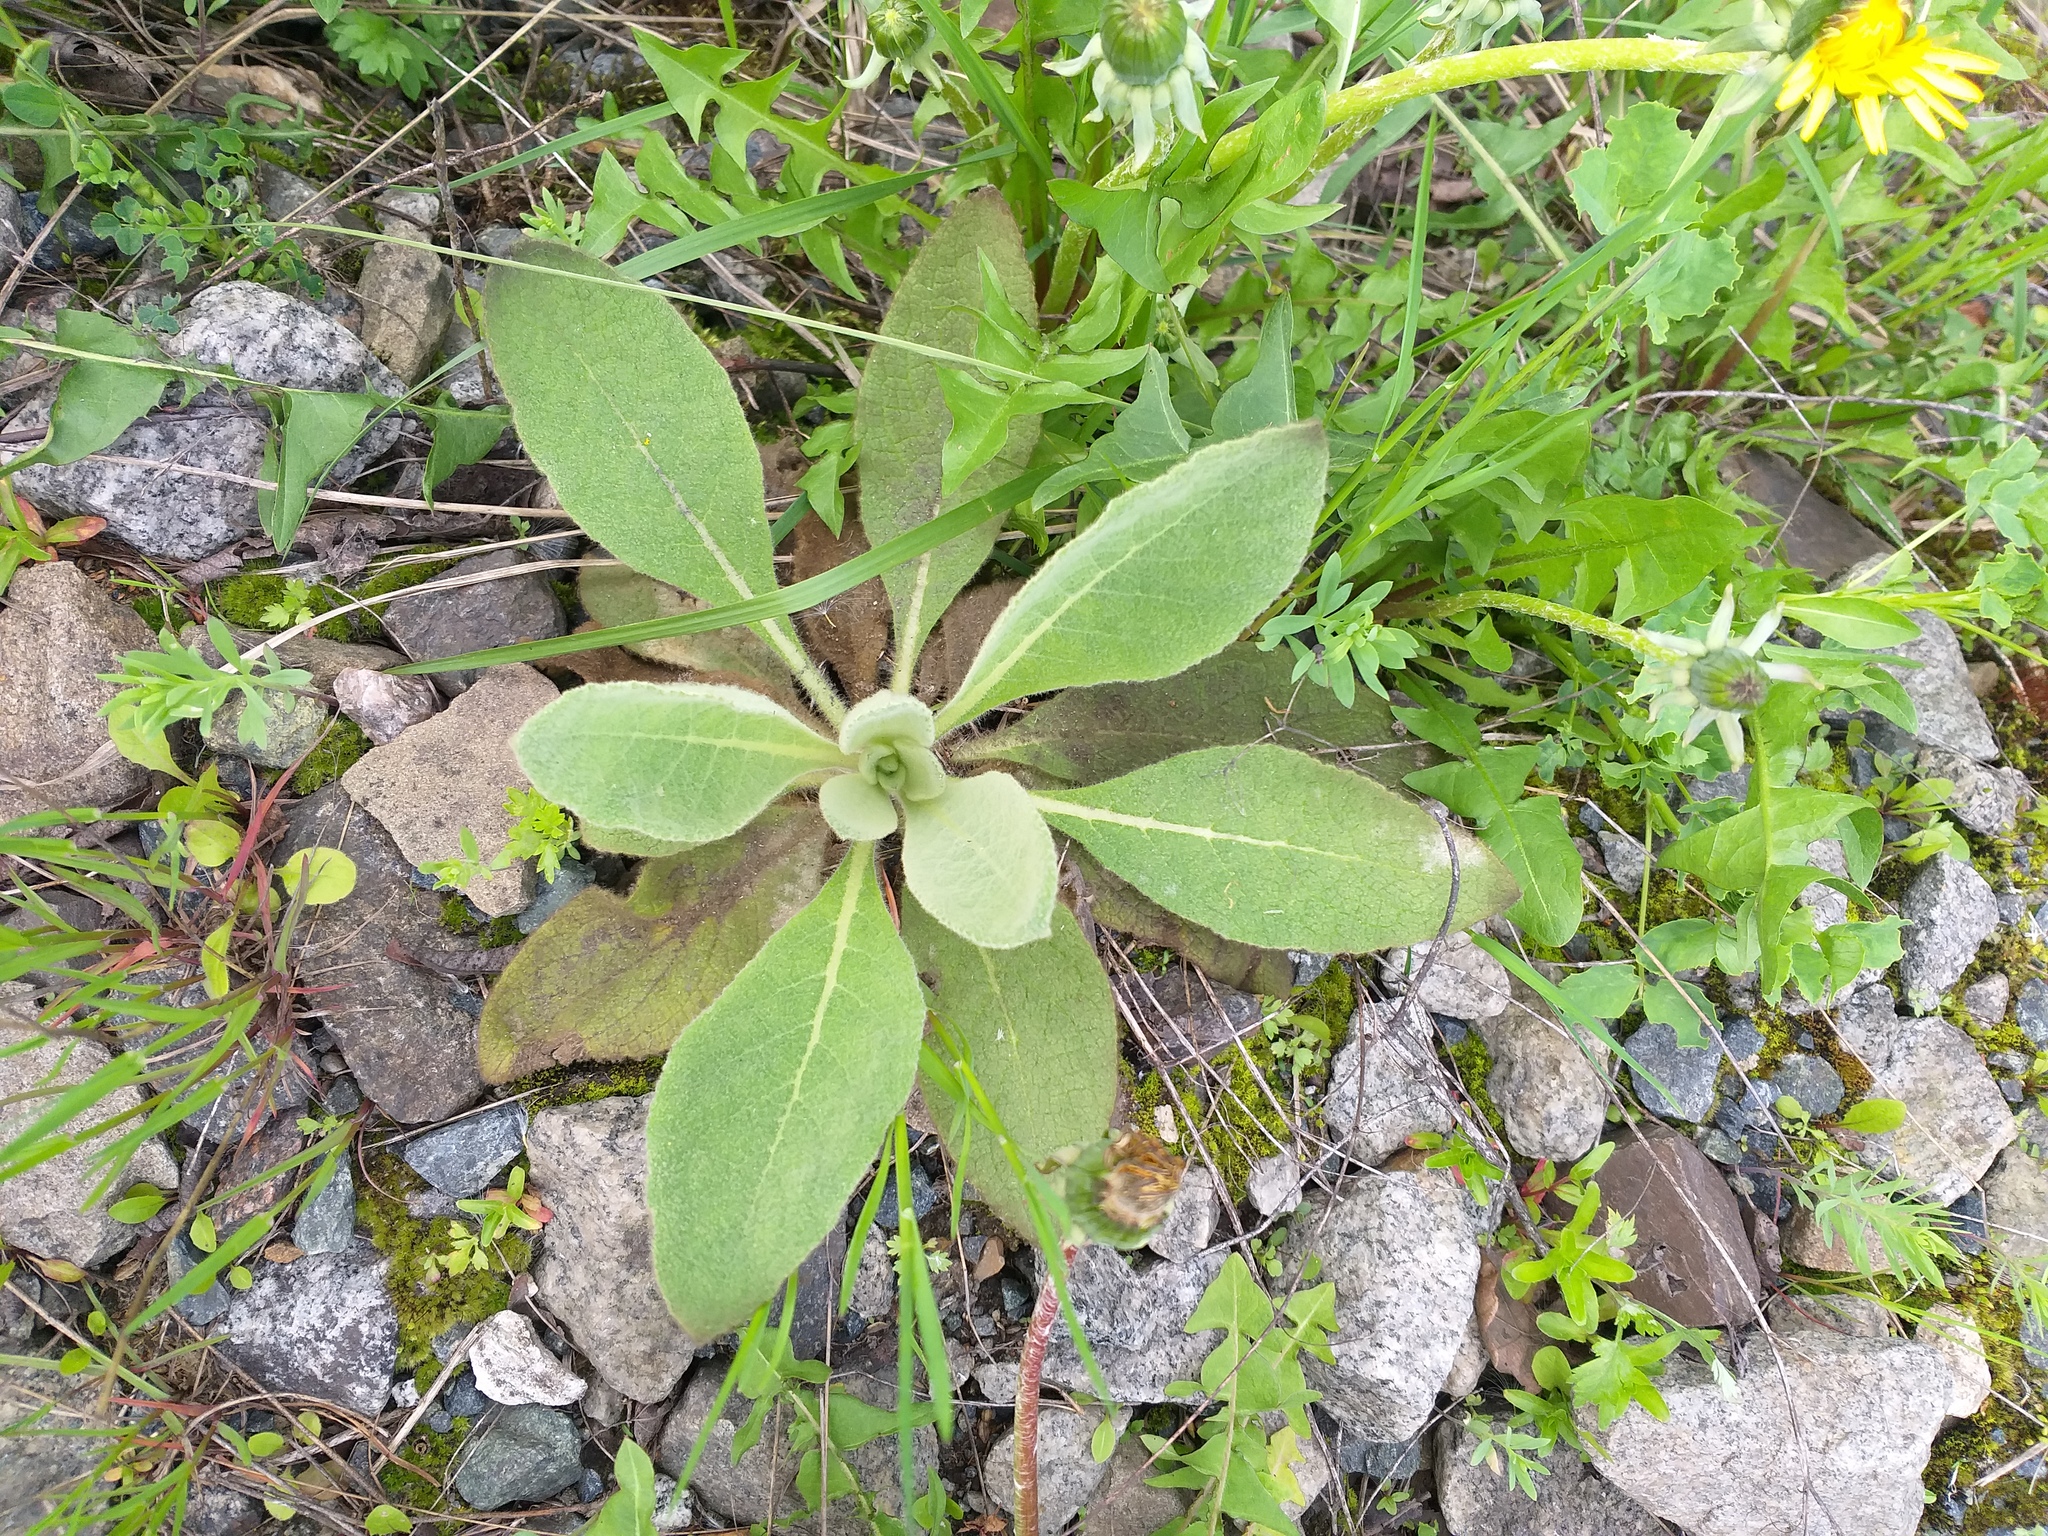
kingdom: Plantae
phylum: Tracheophyta
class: Magnoliopsida
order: Lamiales
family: Scrophulariaceae
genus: Verbascum
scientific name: Verbascum thapsus
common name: Common mullein
